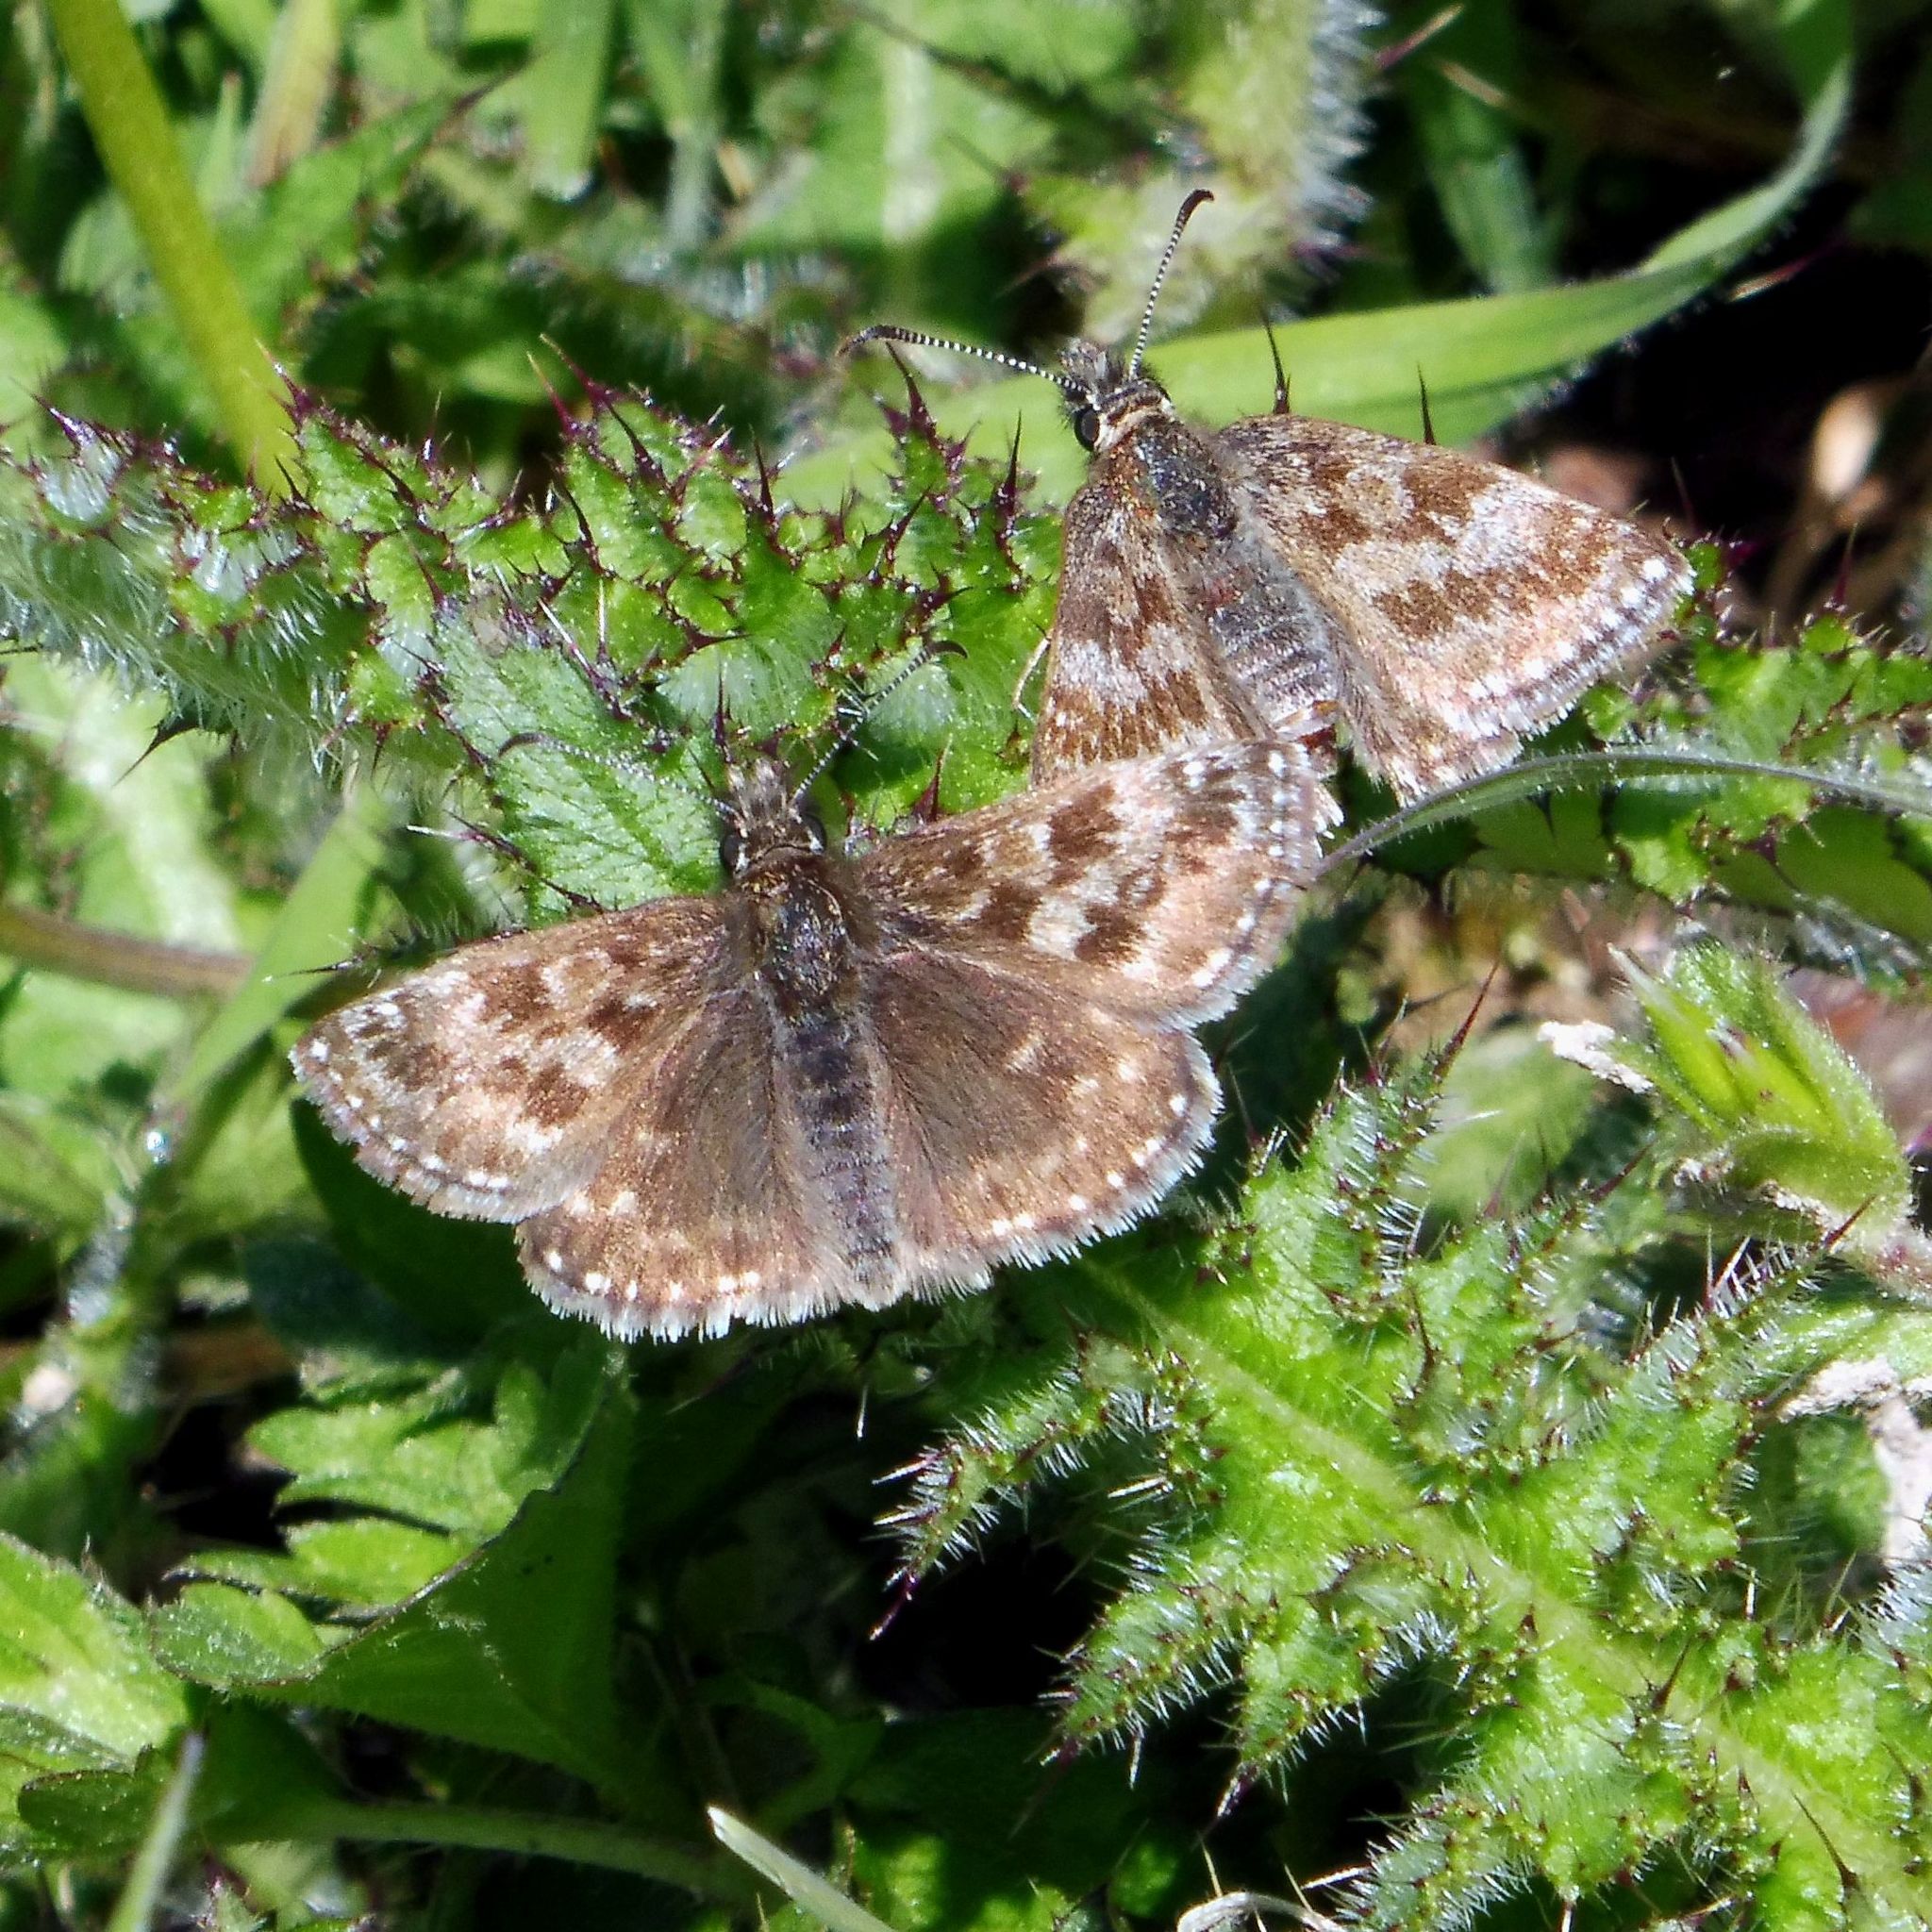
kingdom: Animalia
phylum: Arthropoda
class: Insecta
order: Lepidoptera
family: Hesperiidae
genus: Erynnis
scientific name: Erynnis tages
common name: Dingy skipper
